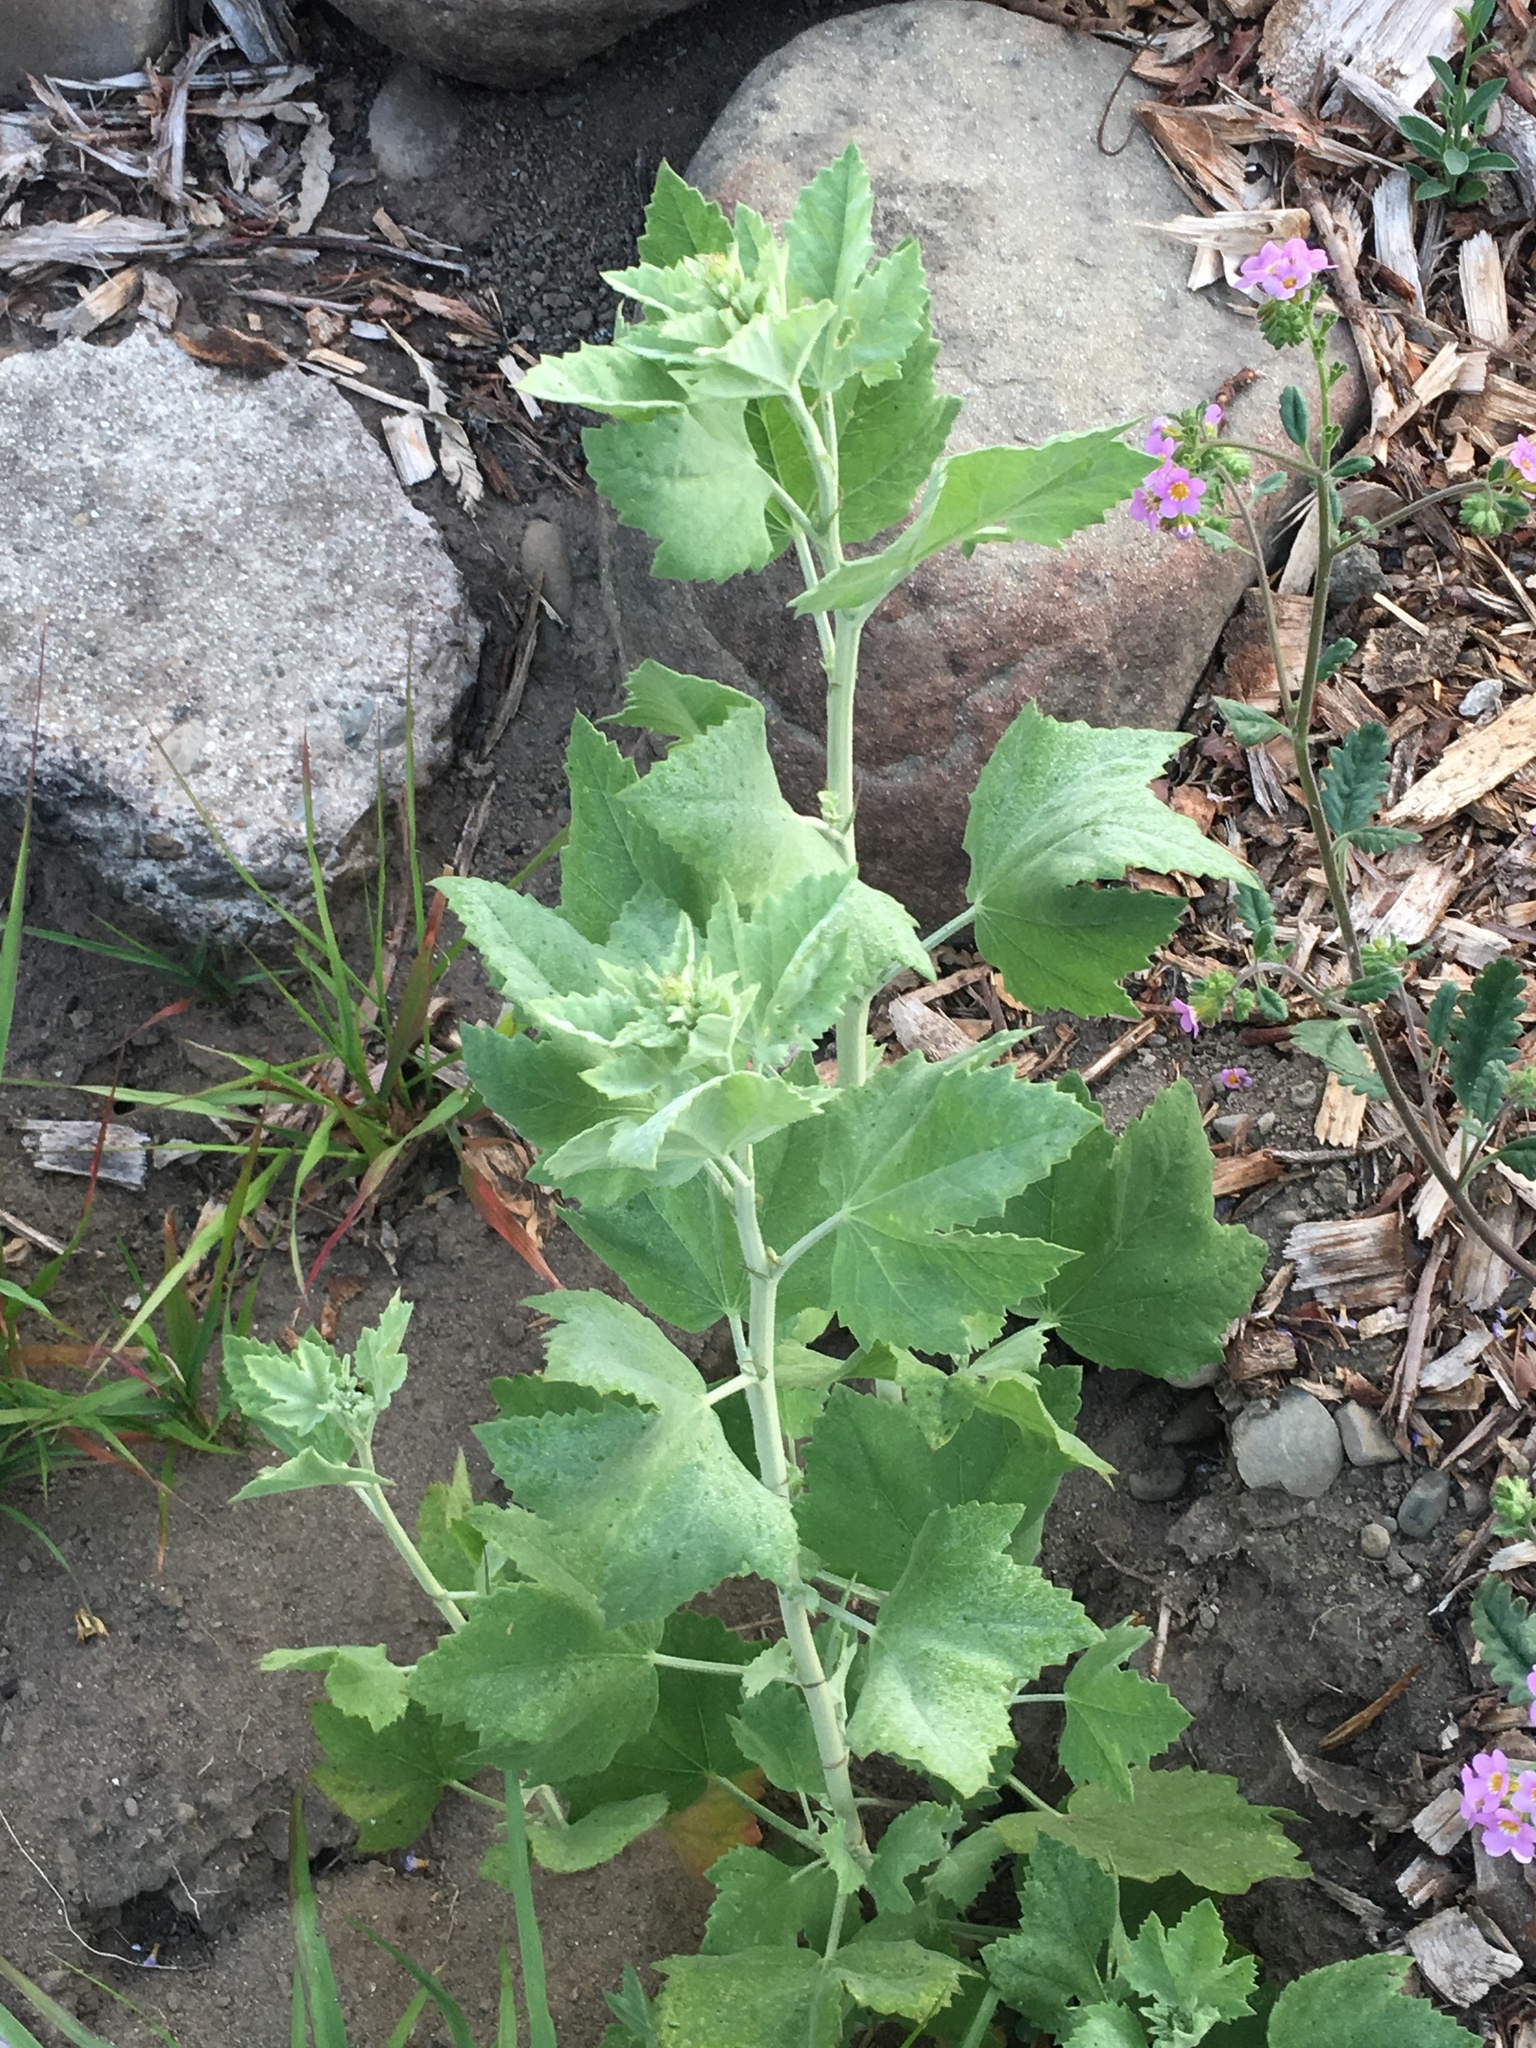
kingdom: Plantae
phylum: Tracheophyta
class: Magnoliopsida
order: Malvales
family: Malvaceae
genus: Malacothamnus
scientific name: Malacothamnus fasciculatus
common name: Sant cruz island bush-mallow
